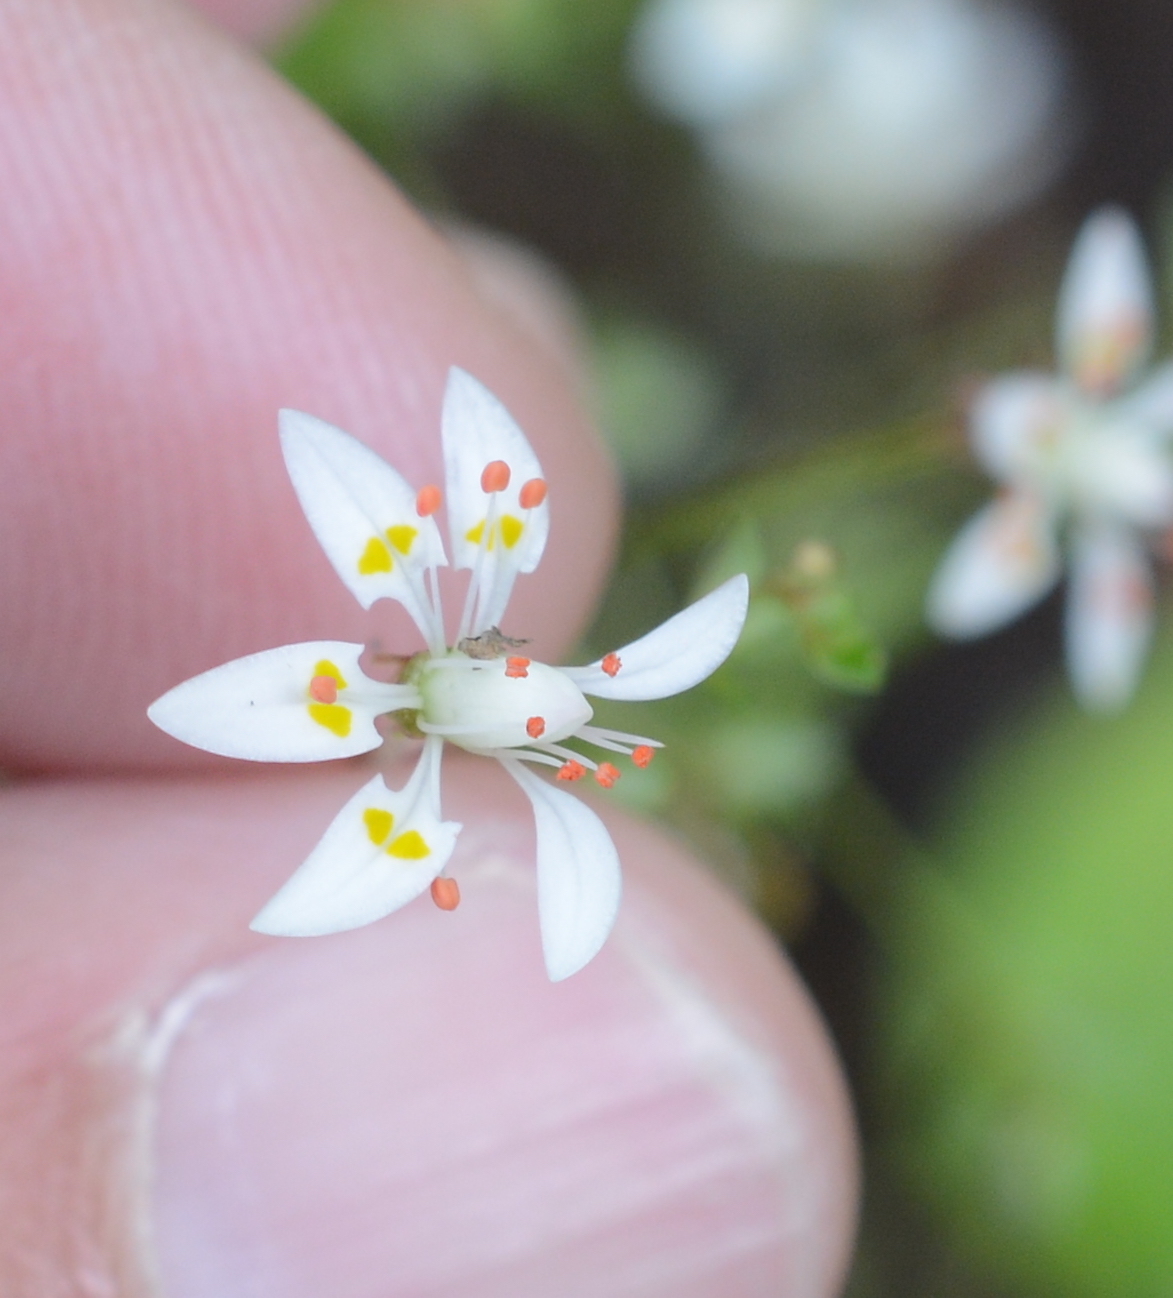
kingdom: Plantae
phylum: Tracheophyta
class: Magnoliopsida
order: Saxifragales
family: Saxifragaceae
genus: Micranthes
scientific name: Micranthes ferruginea
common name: Rusty saxifrage
